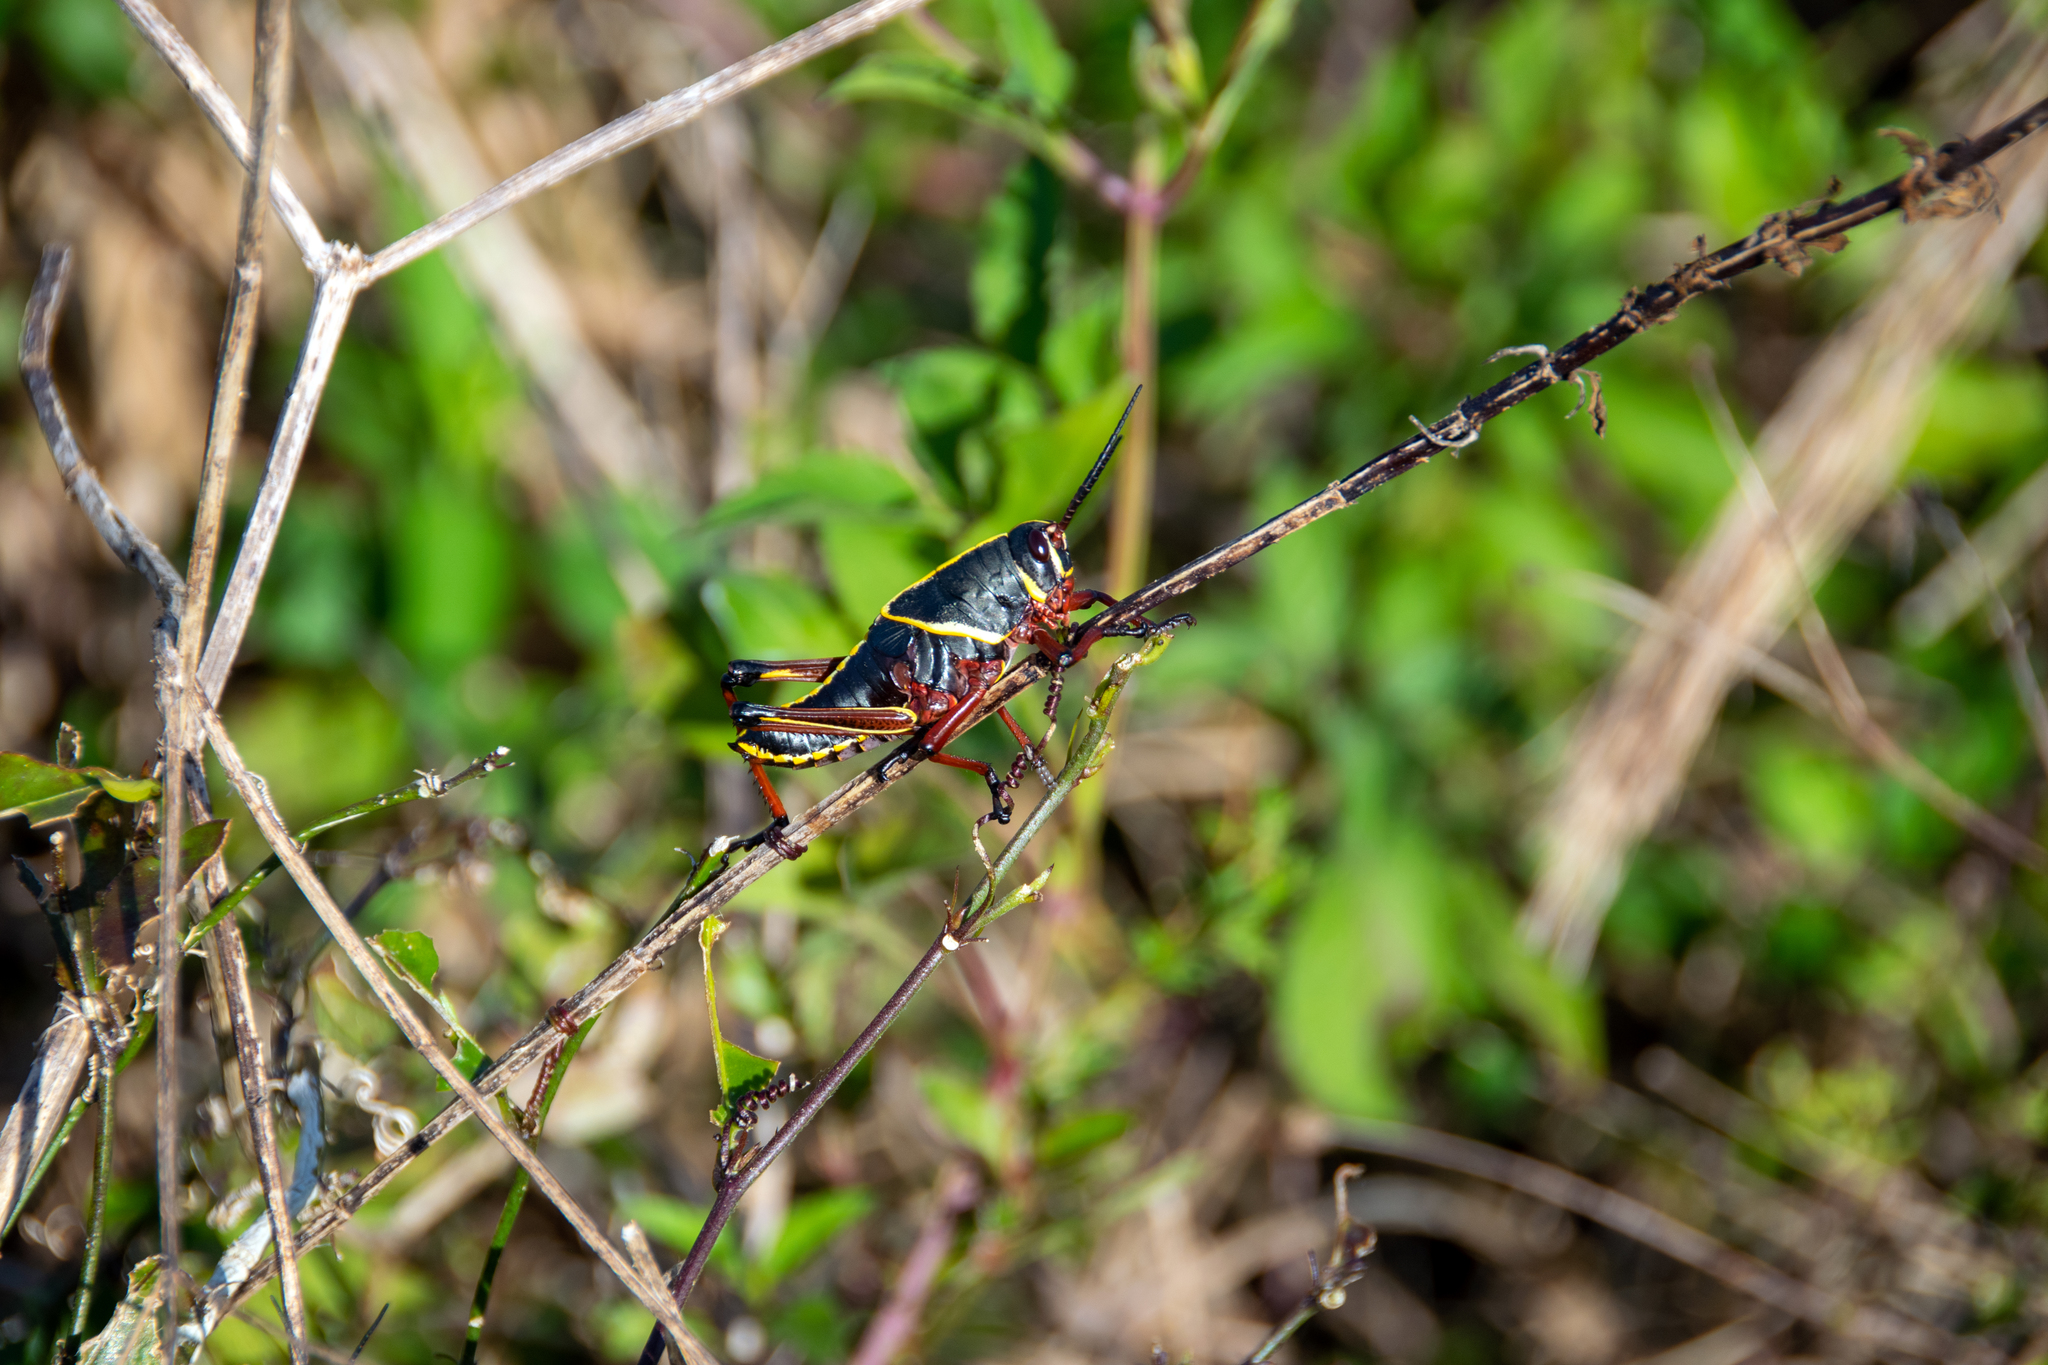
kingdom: Animalia
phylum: Arthropoda
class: Insecta
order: Orthoptera
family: Romaleidae
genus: Romalea
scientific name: Romalea microptera
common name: Eastern lubber grasshopper
